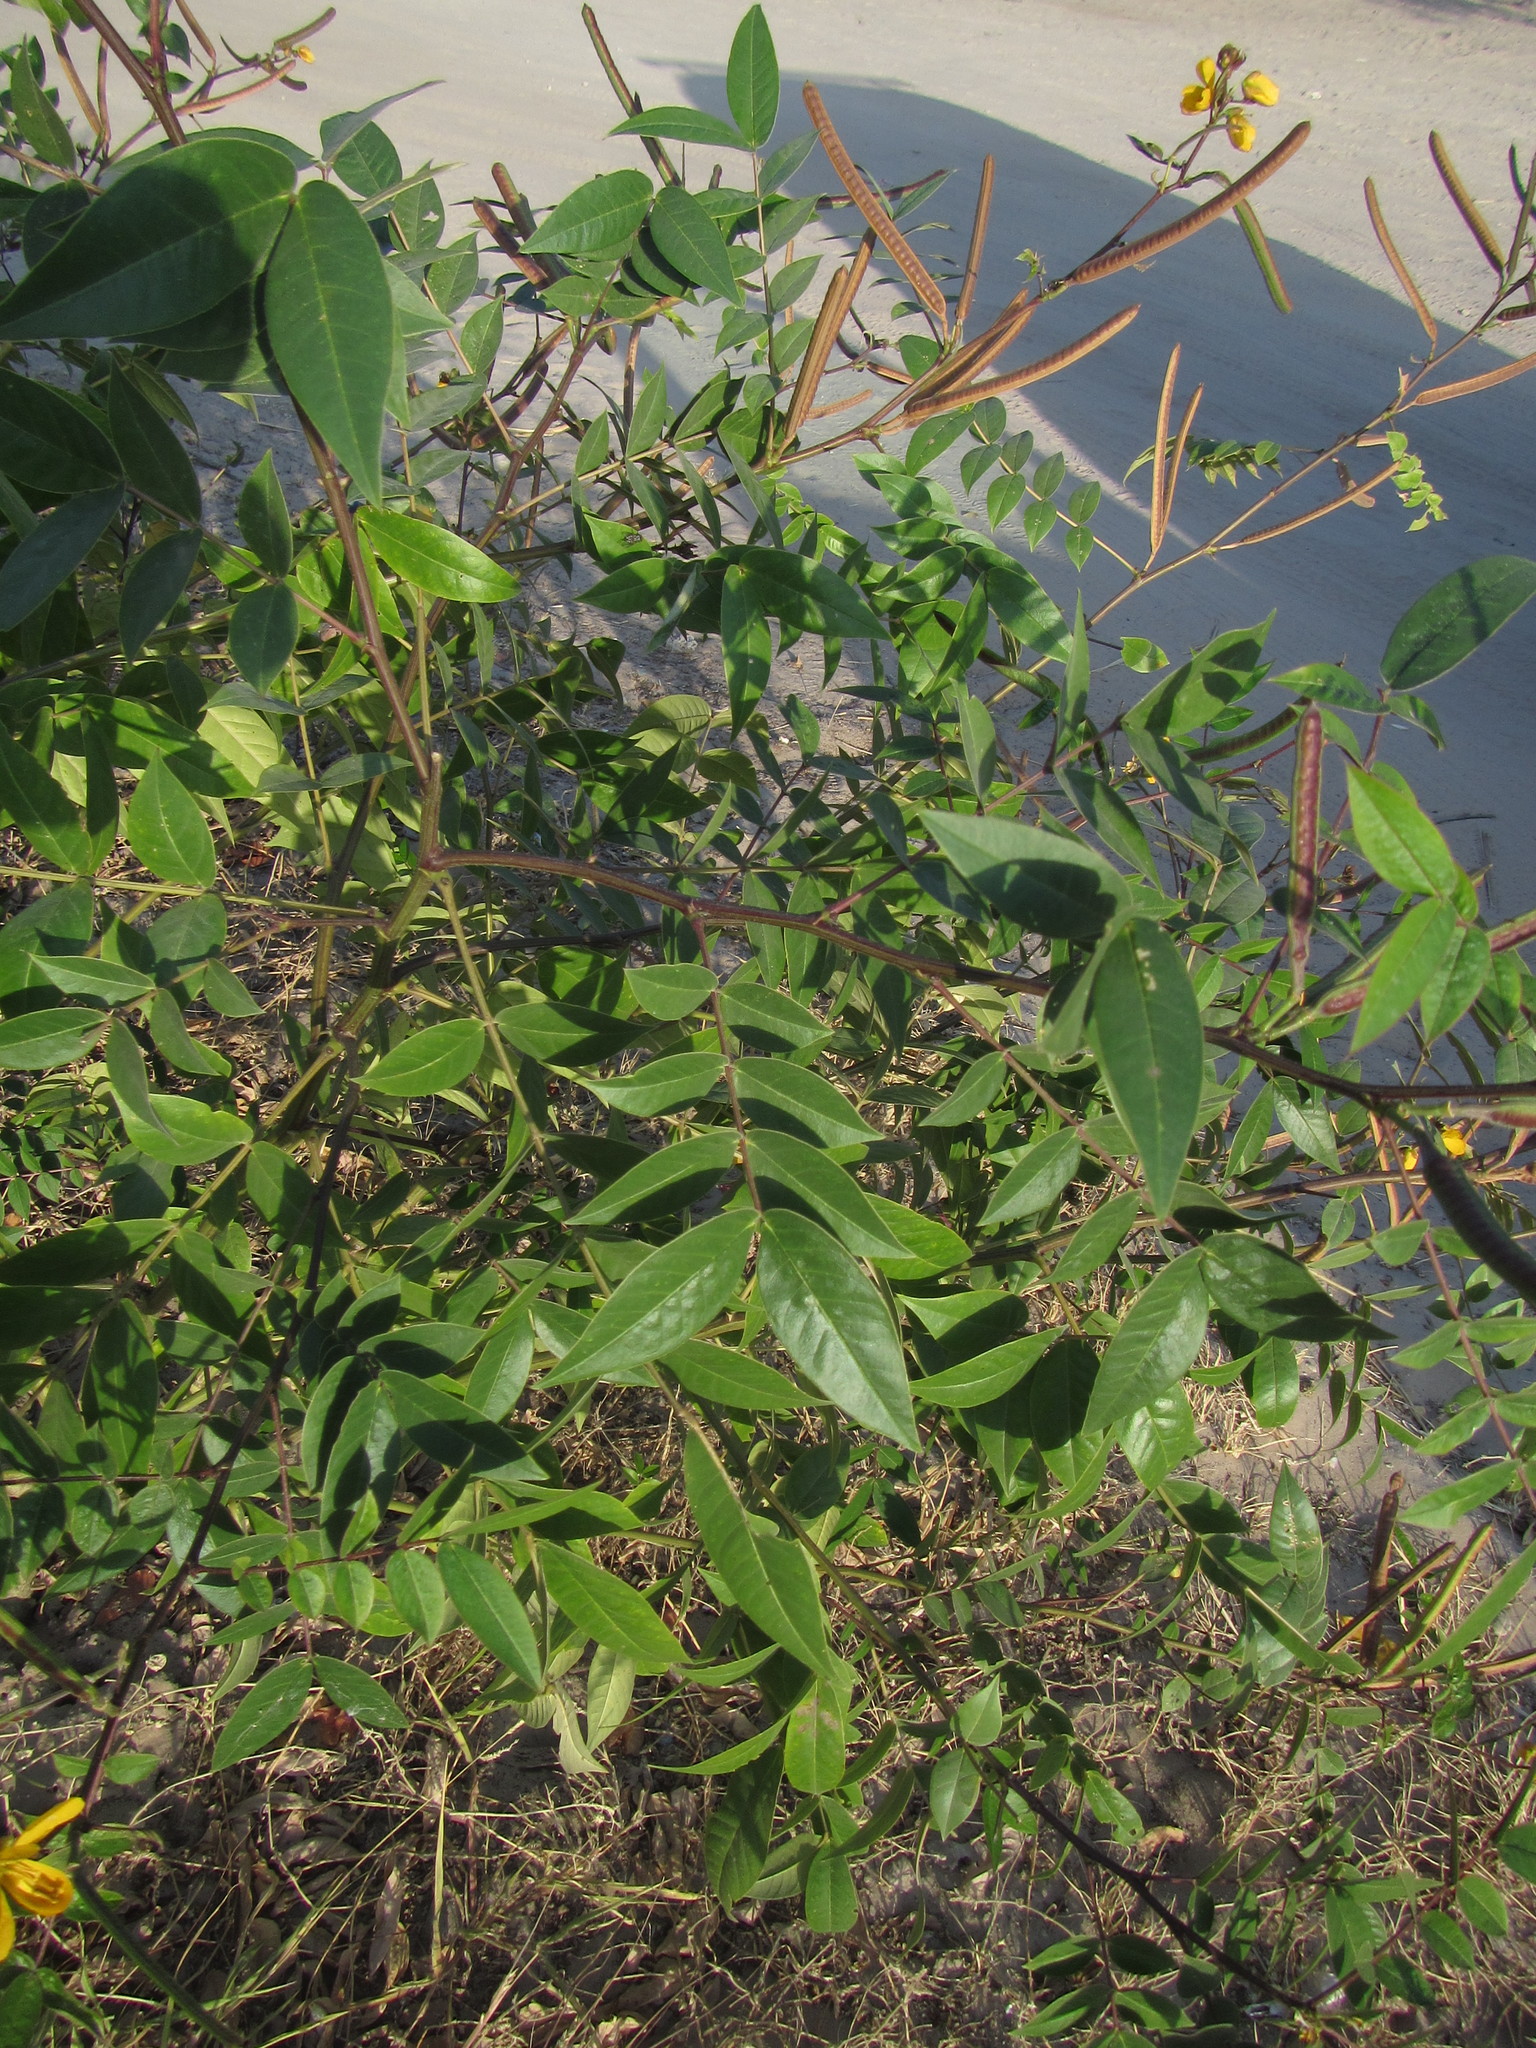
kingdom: Plantae
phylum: Tracheophyta
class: Magnoliopsida
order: Fabales
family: Fabaceae
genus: Senna
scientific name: Senna occidentalis
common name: Septicweed
